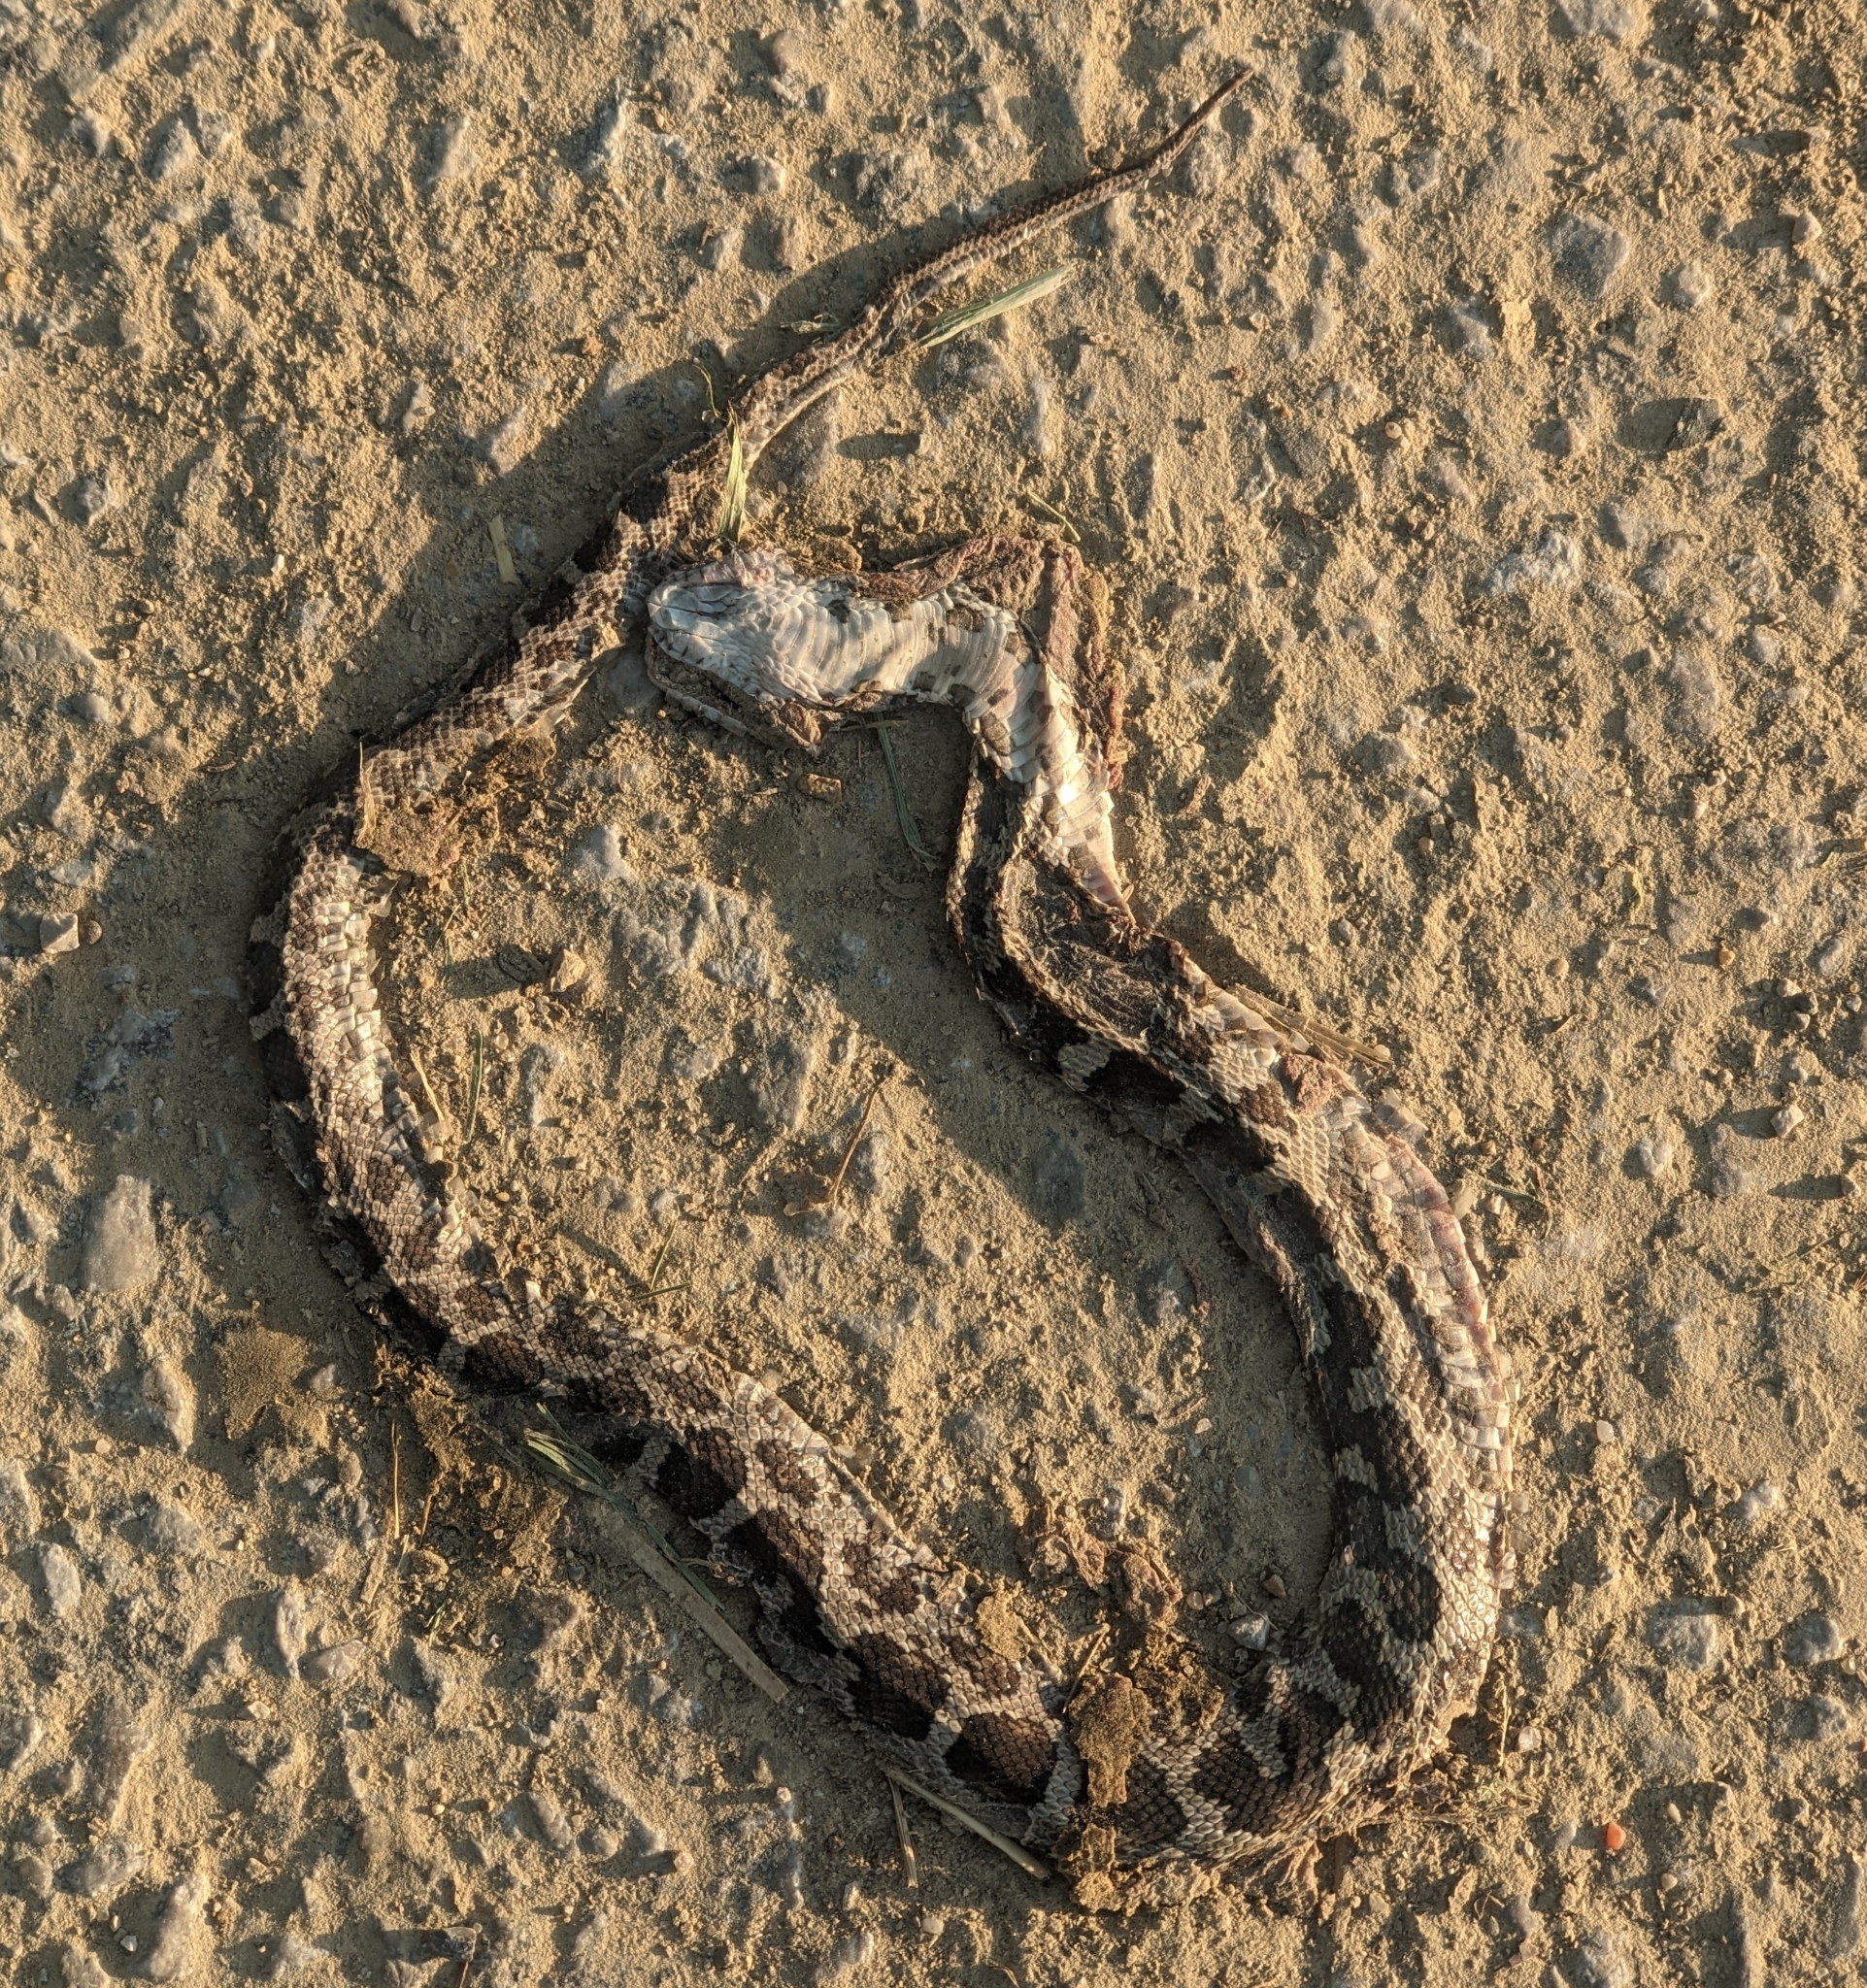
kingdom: Animalia
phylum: Chordata
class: Squamata
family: Colubridae
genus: Pantherophis
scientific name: Pantherophis spiloides
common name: Gray rat snake
